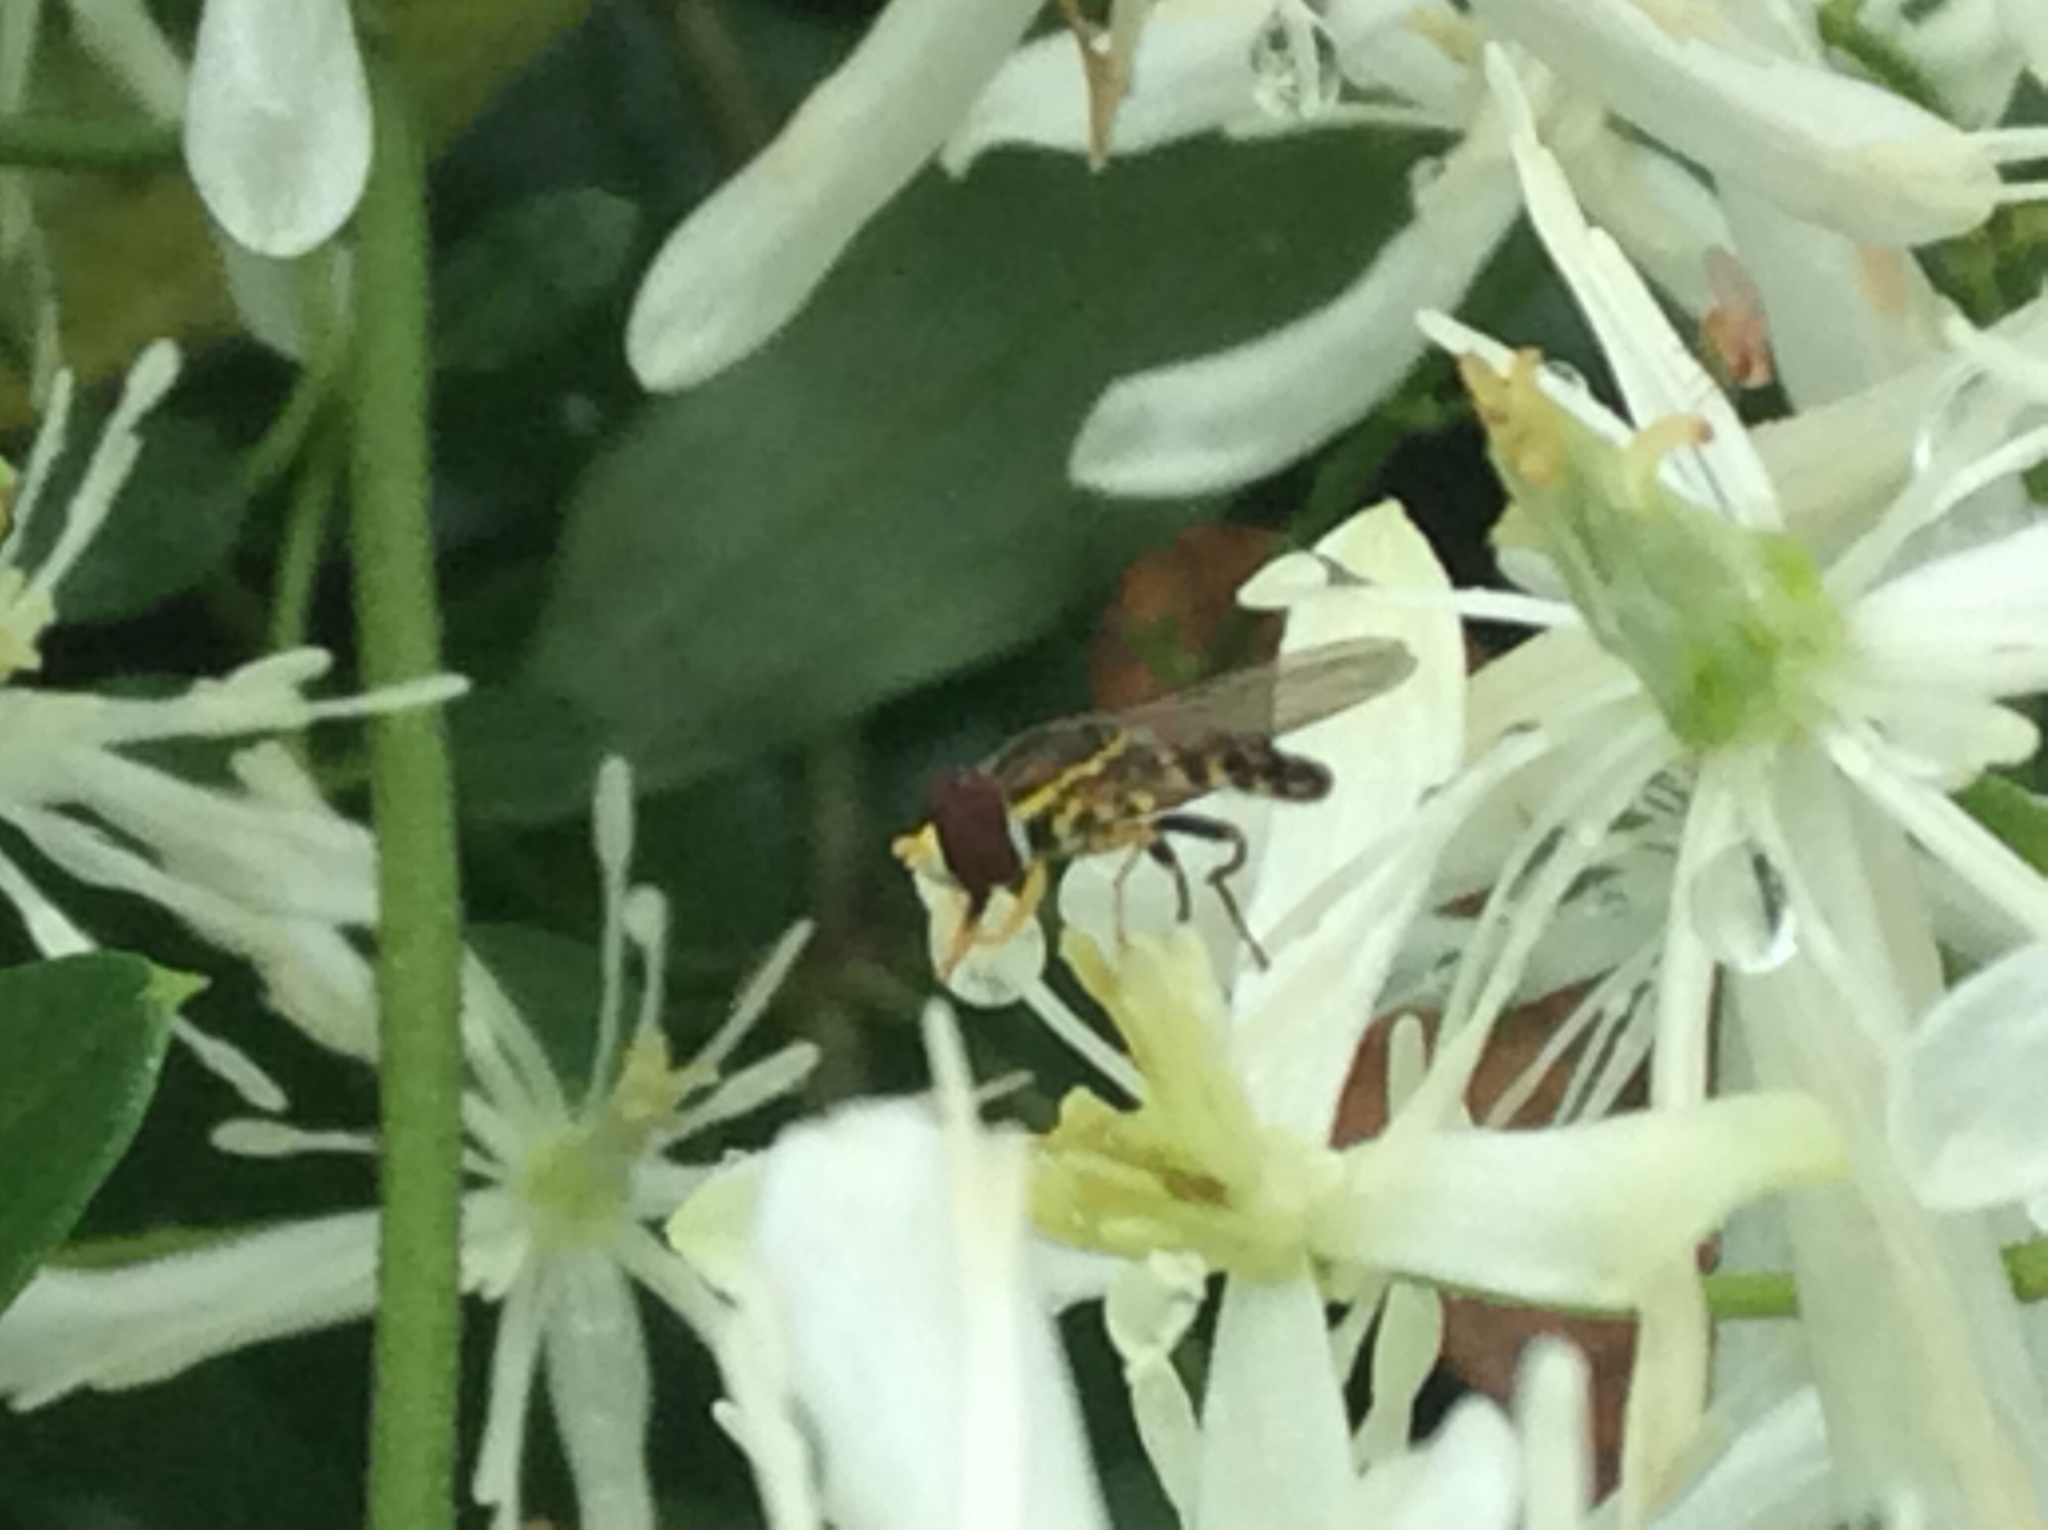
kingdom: Animalia
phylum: Arthropoda
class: Insecta
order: Diptera
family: Syrphidae
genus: Toxomerus
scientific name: Toxomerus geminatus
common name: Eastern calligrapher
